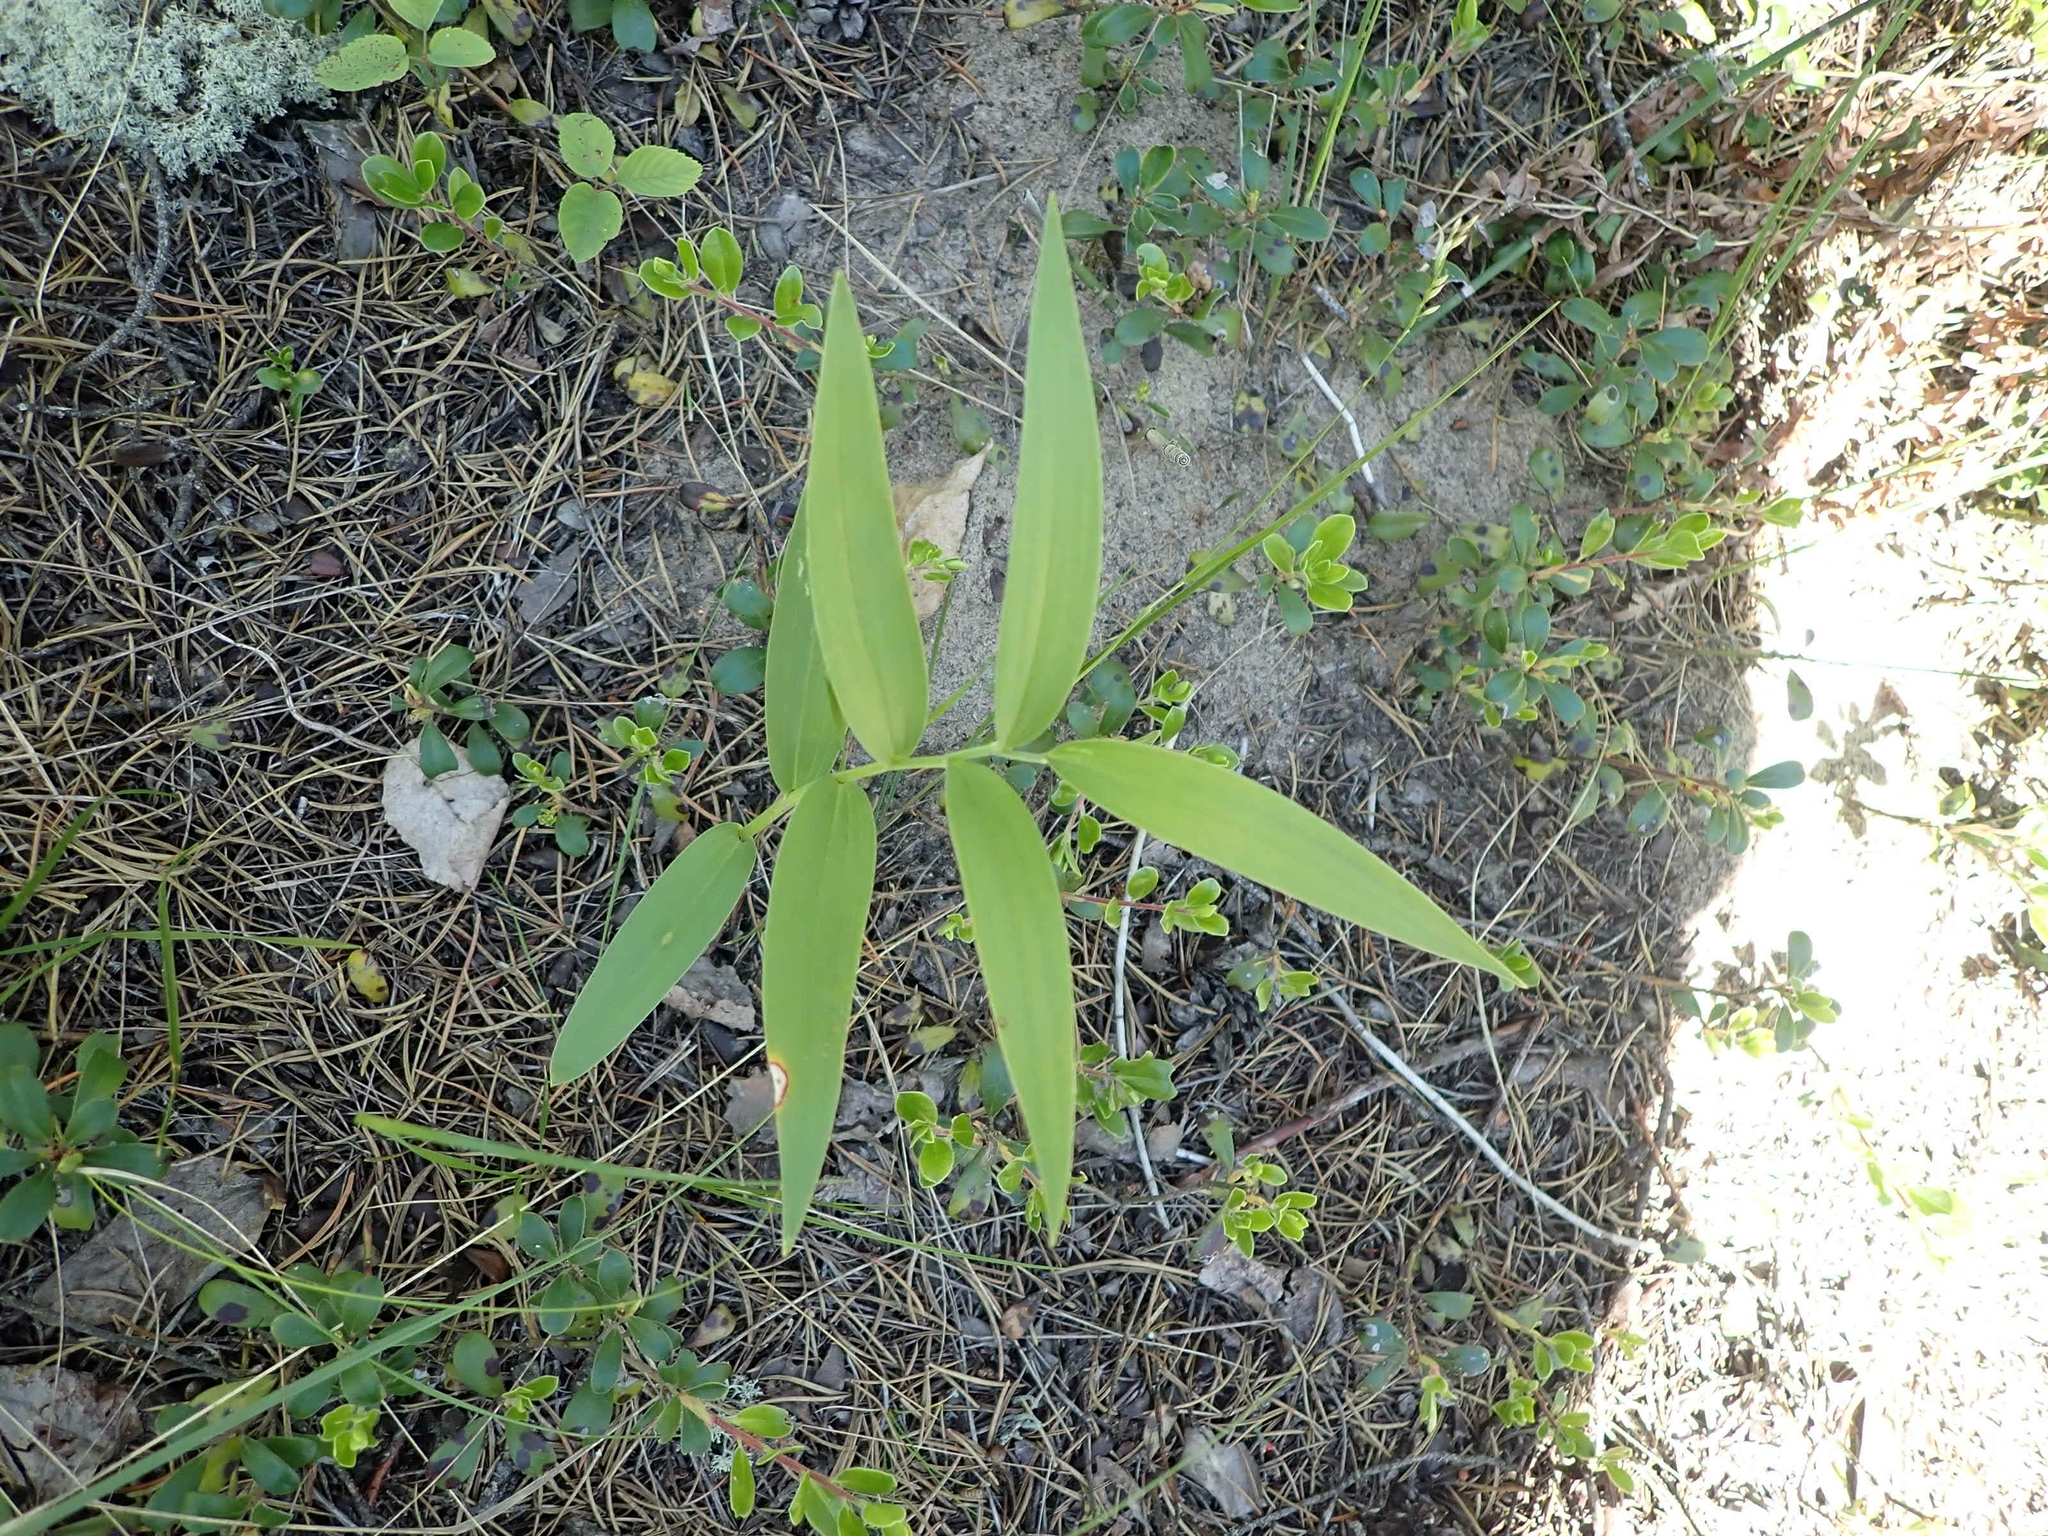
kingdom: Plantae
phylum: Tracheophyta
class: Liliopsida
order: Asparagales
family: Asparagaceae
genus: Maianthemum
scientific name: Maianthemum stellatum
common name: Little false solomon's seal
